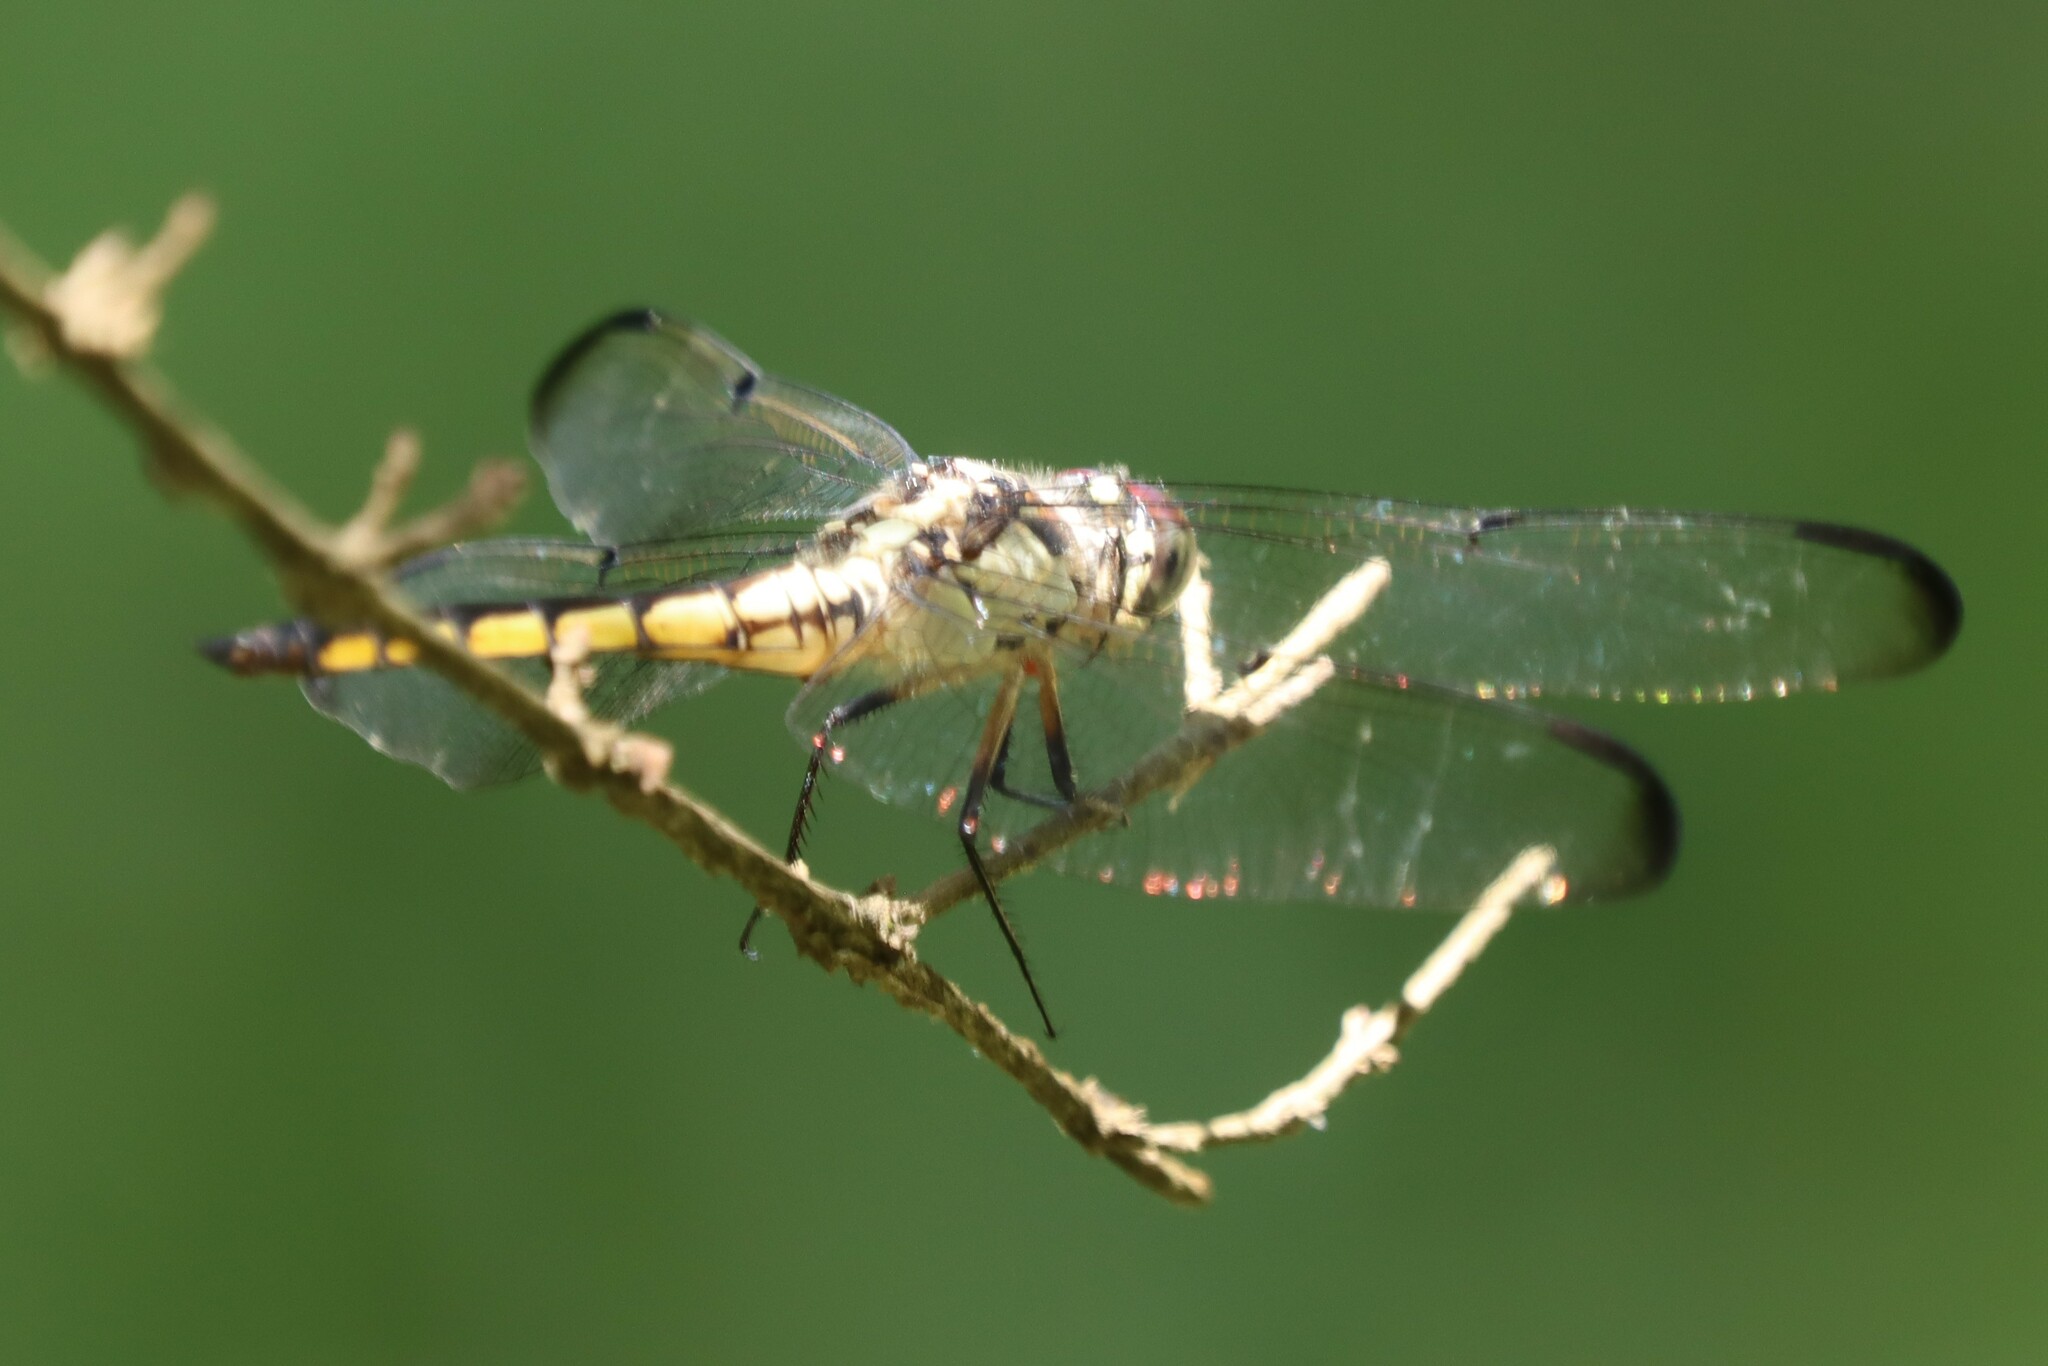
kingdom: Animalia
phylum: Arthropoda
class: Insecta
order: Odonata
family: Libellulidae
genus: Libellula
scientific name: Libellula vibrans
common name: Great blue skimmer
